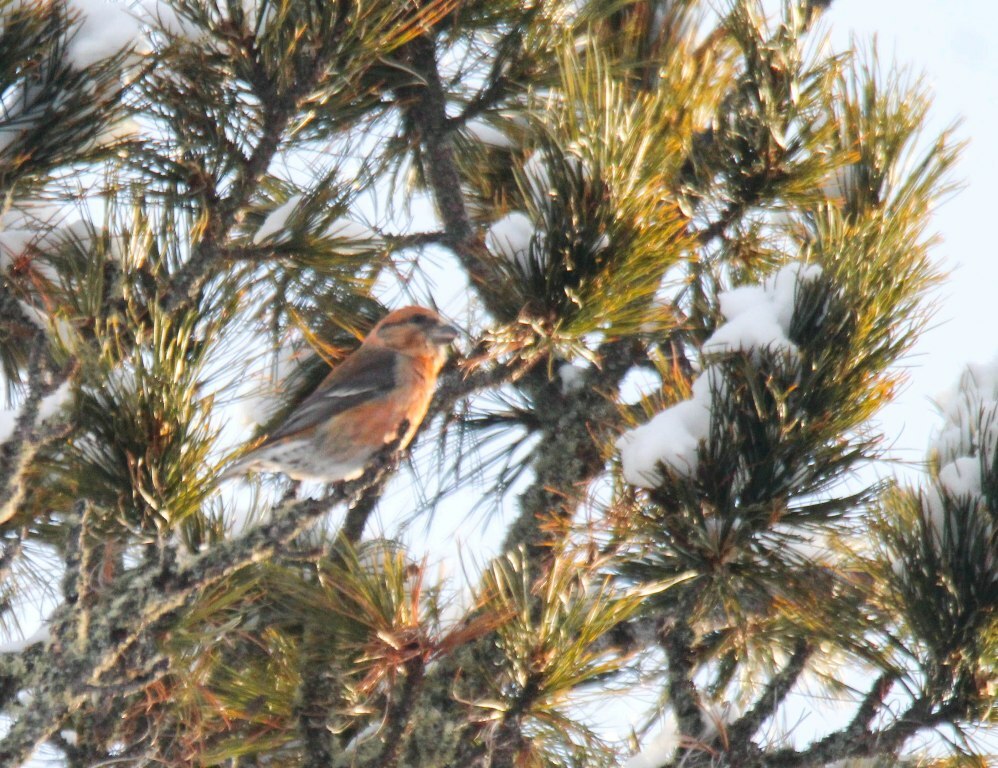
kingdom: Animalia
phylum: Chordata
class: Aves
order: Passeriformes
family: Fringillidae
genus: Loxia
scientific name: Loxia curvirostra
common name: Red crossbill
